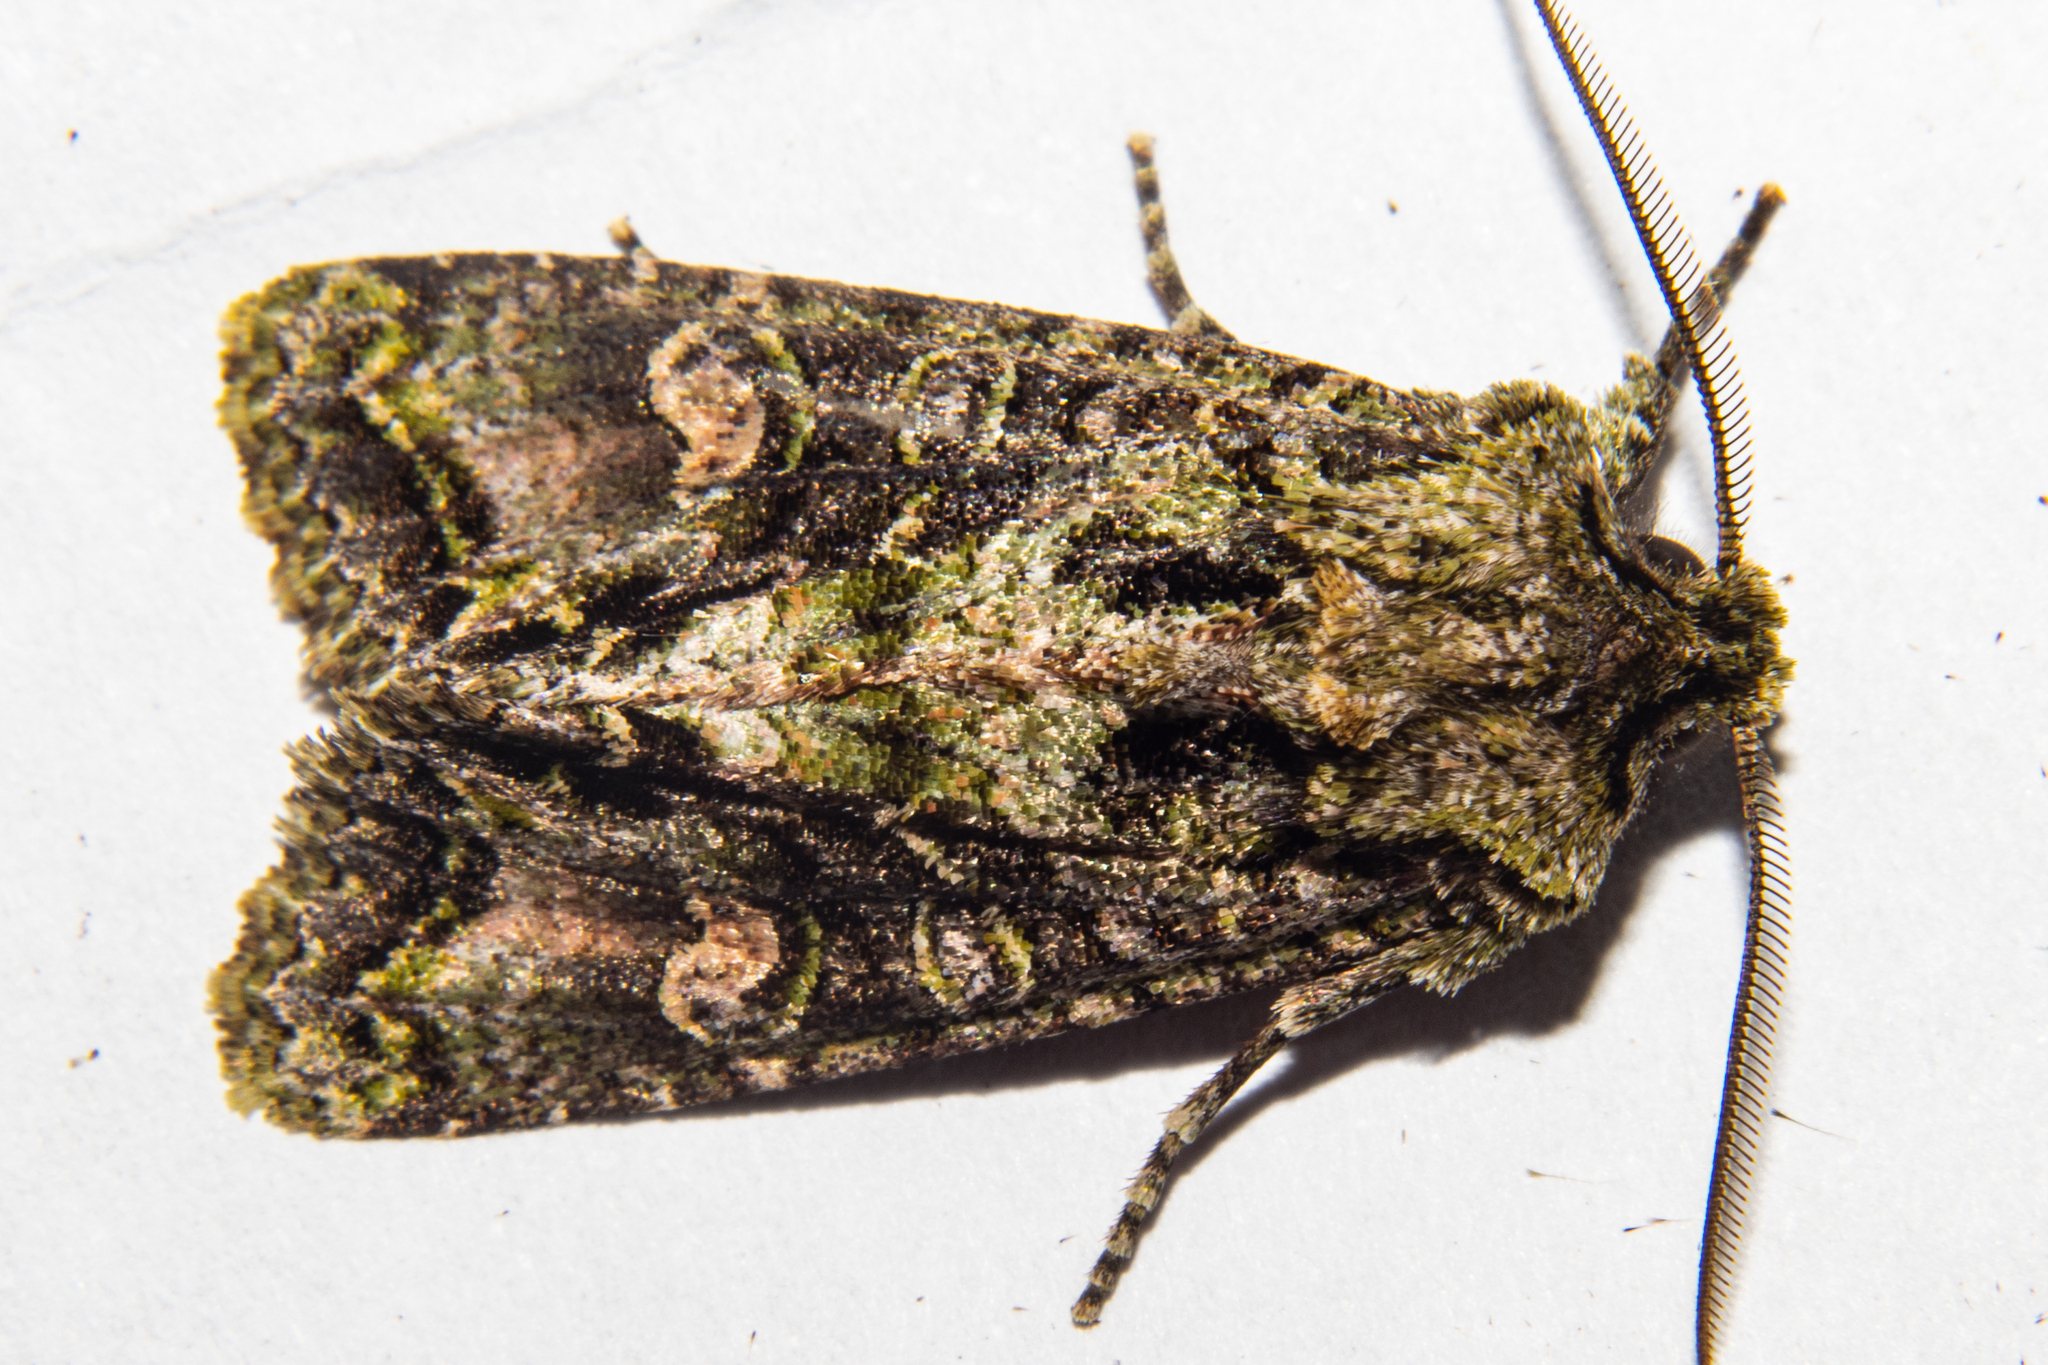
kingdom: Animalia
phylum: Arthropoda
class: Insecta
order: Lepidoptera
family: Noctuidae
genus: Ichneutica
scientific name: Ichneutica
